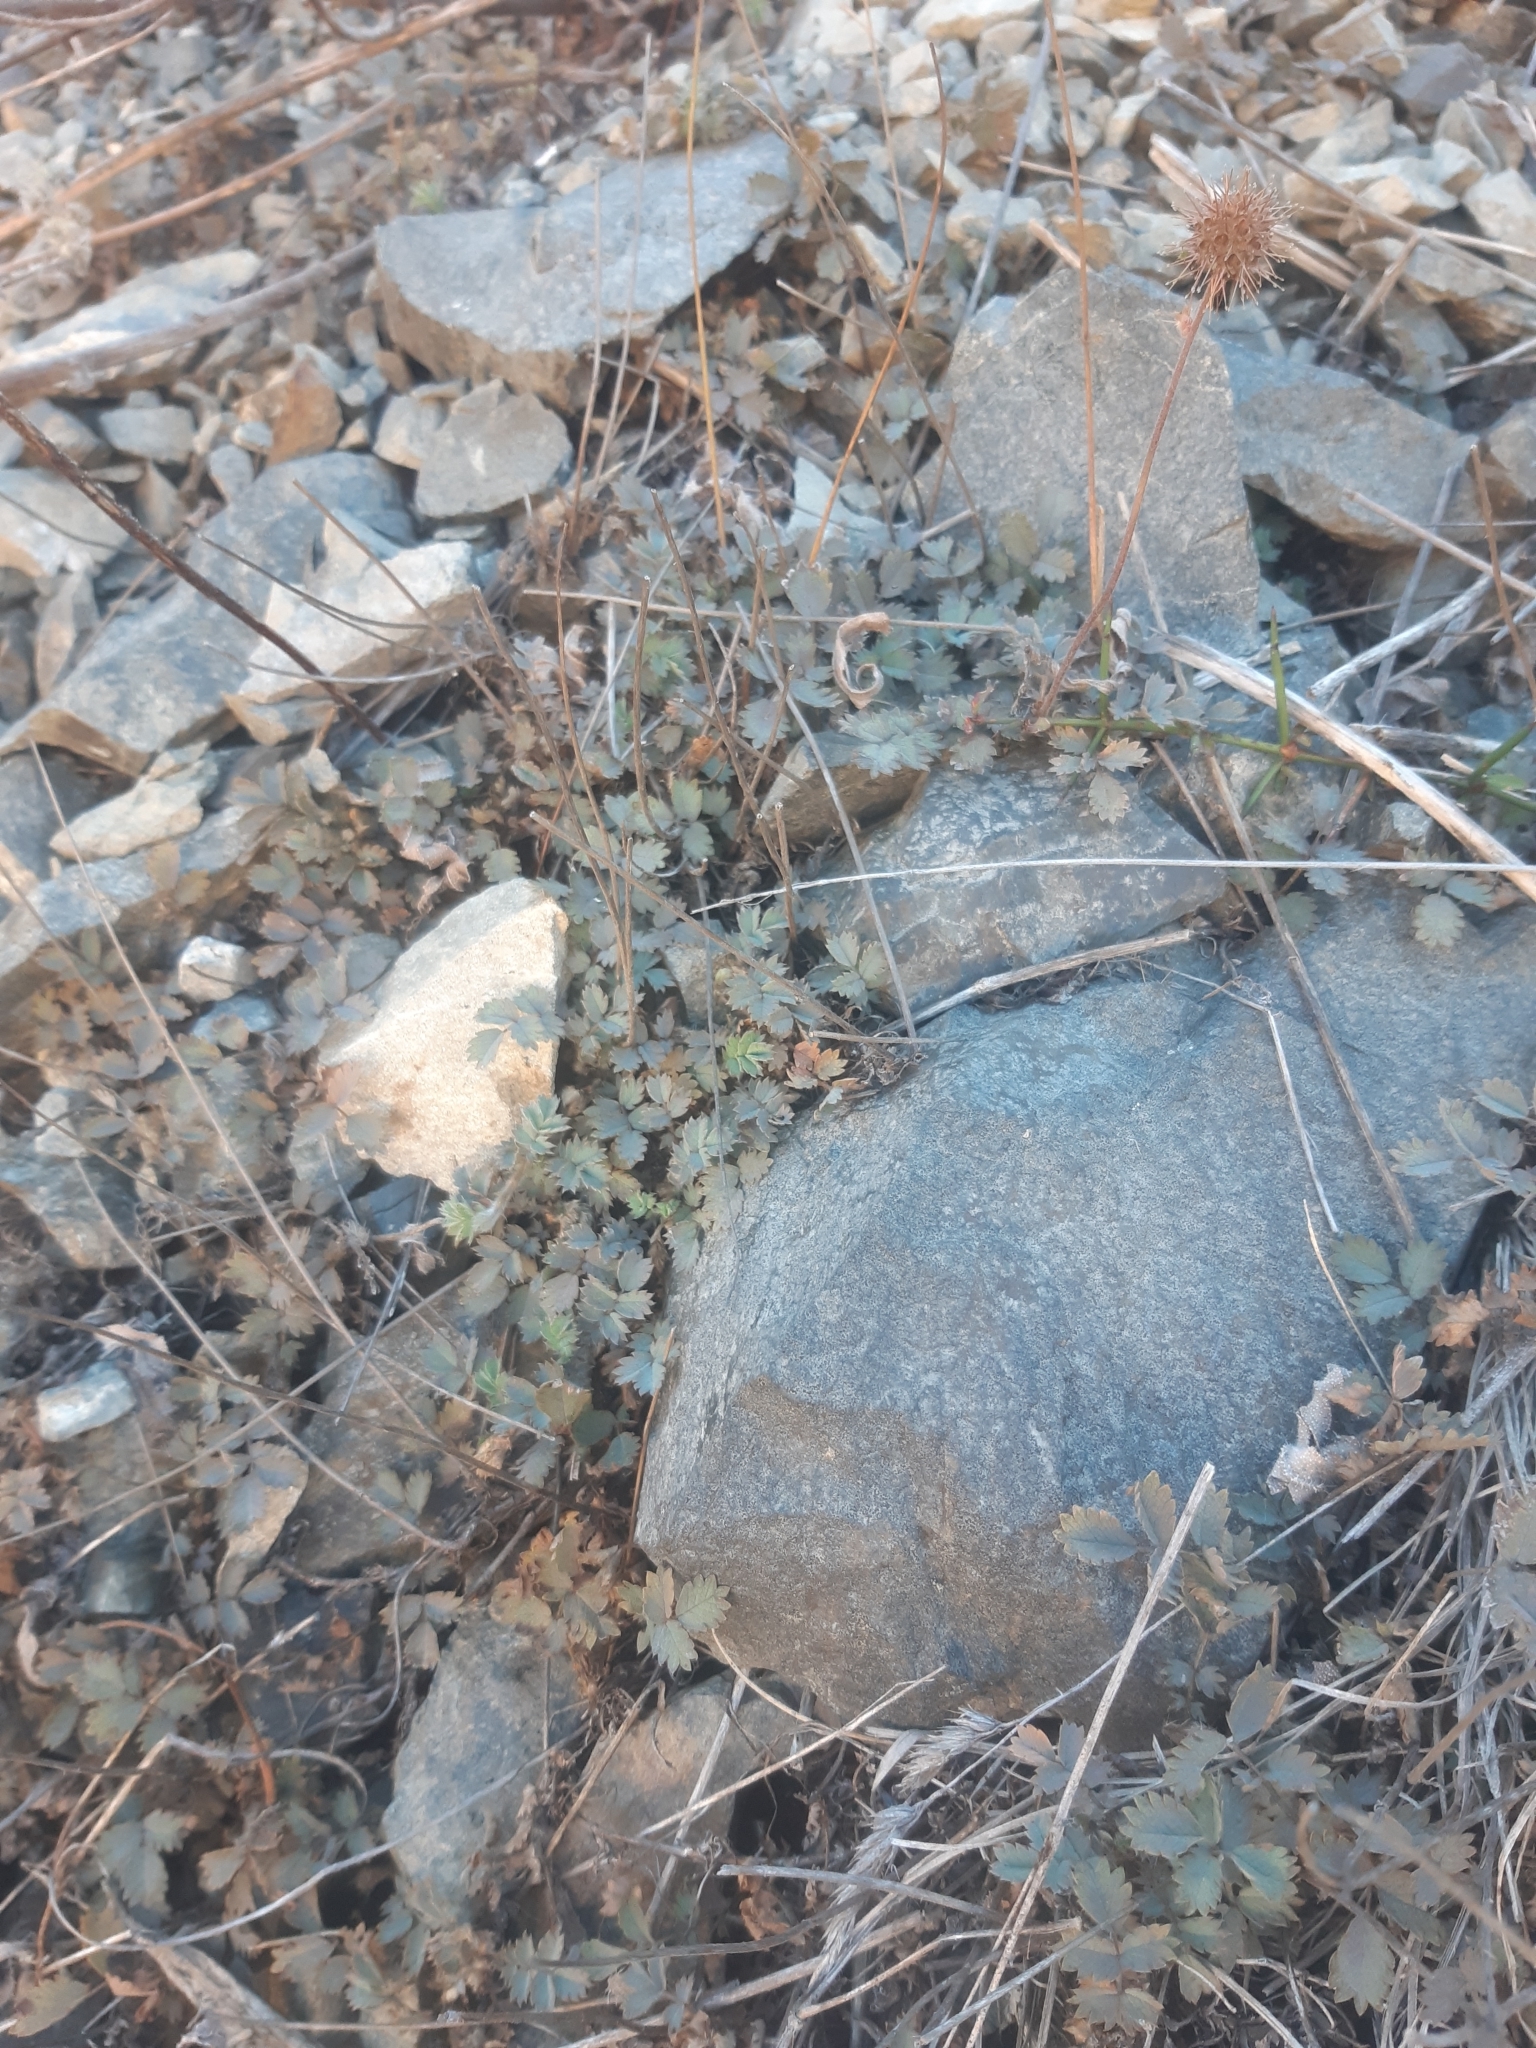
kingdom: Plantae
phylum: Tracheophyta
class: Magnoliopsida
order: Rosales
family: Rosaceae
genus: Acaena
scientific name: Acaena caesiiglauca
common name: Glaucous pirri-pirri-bur
